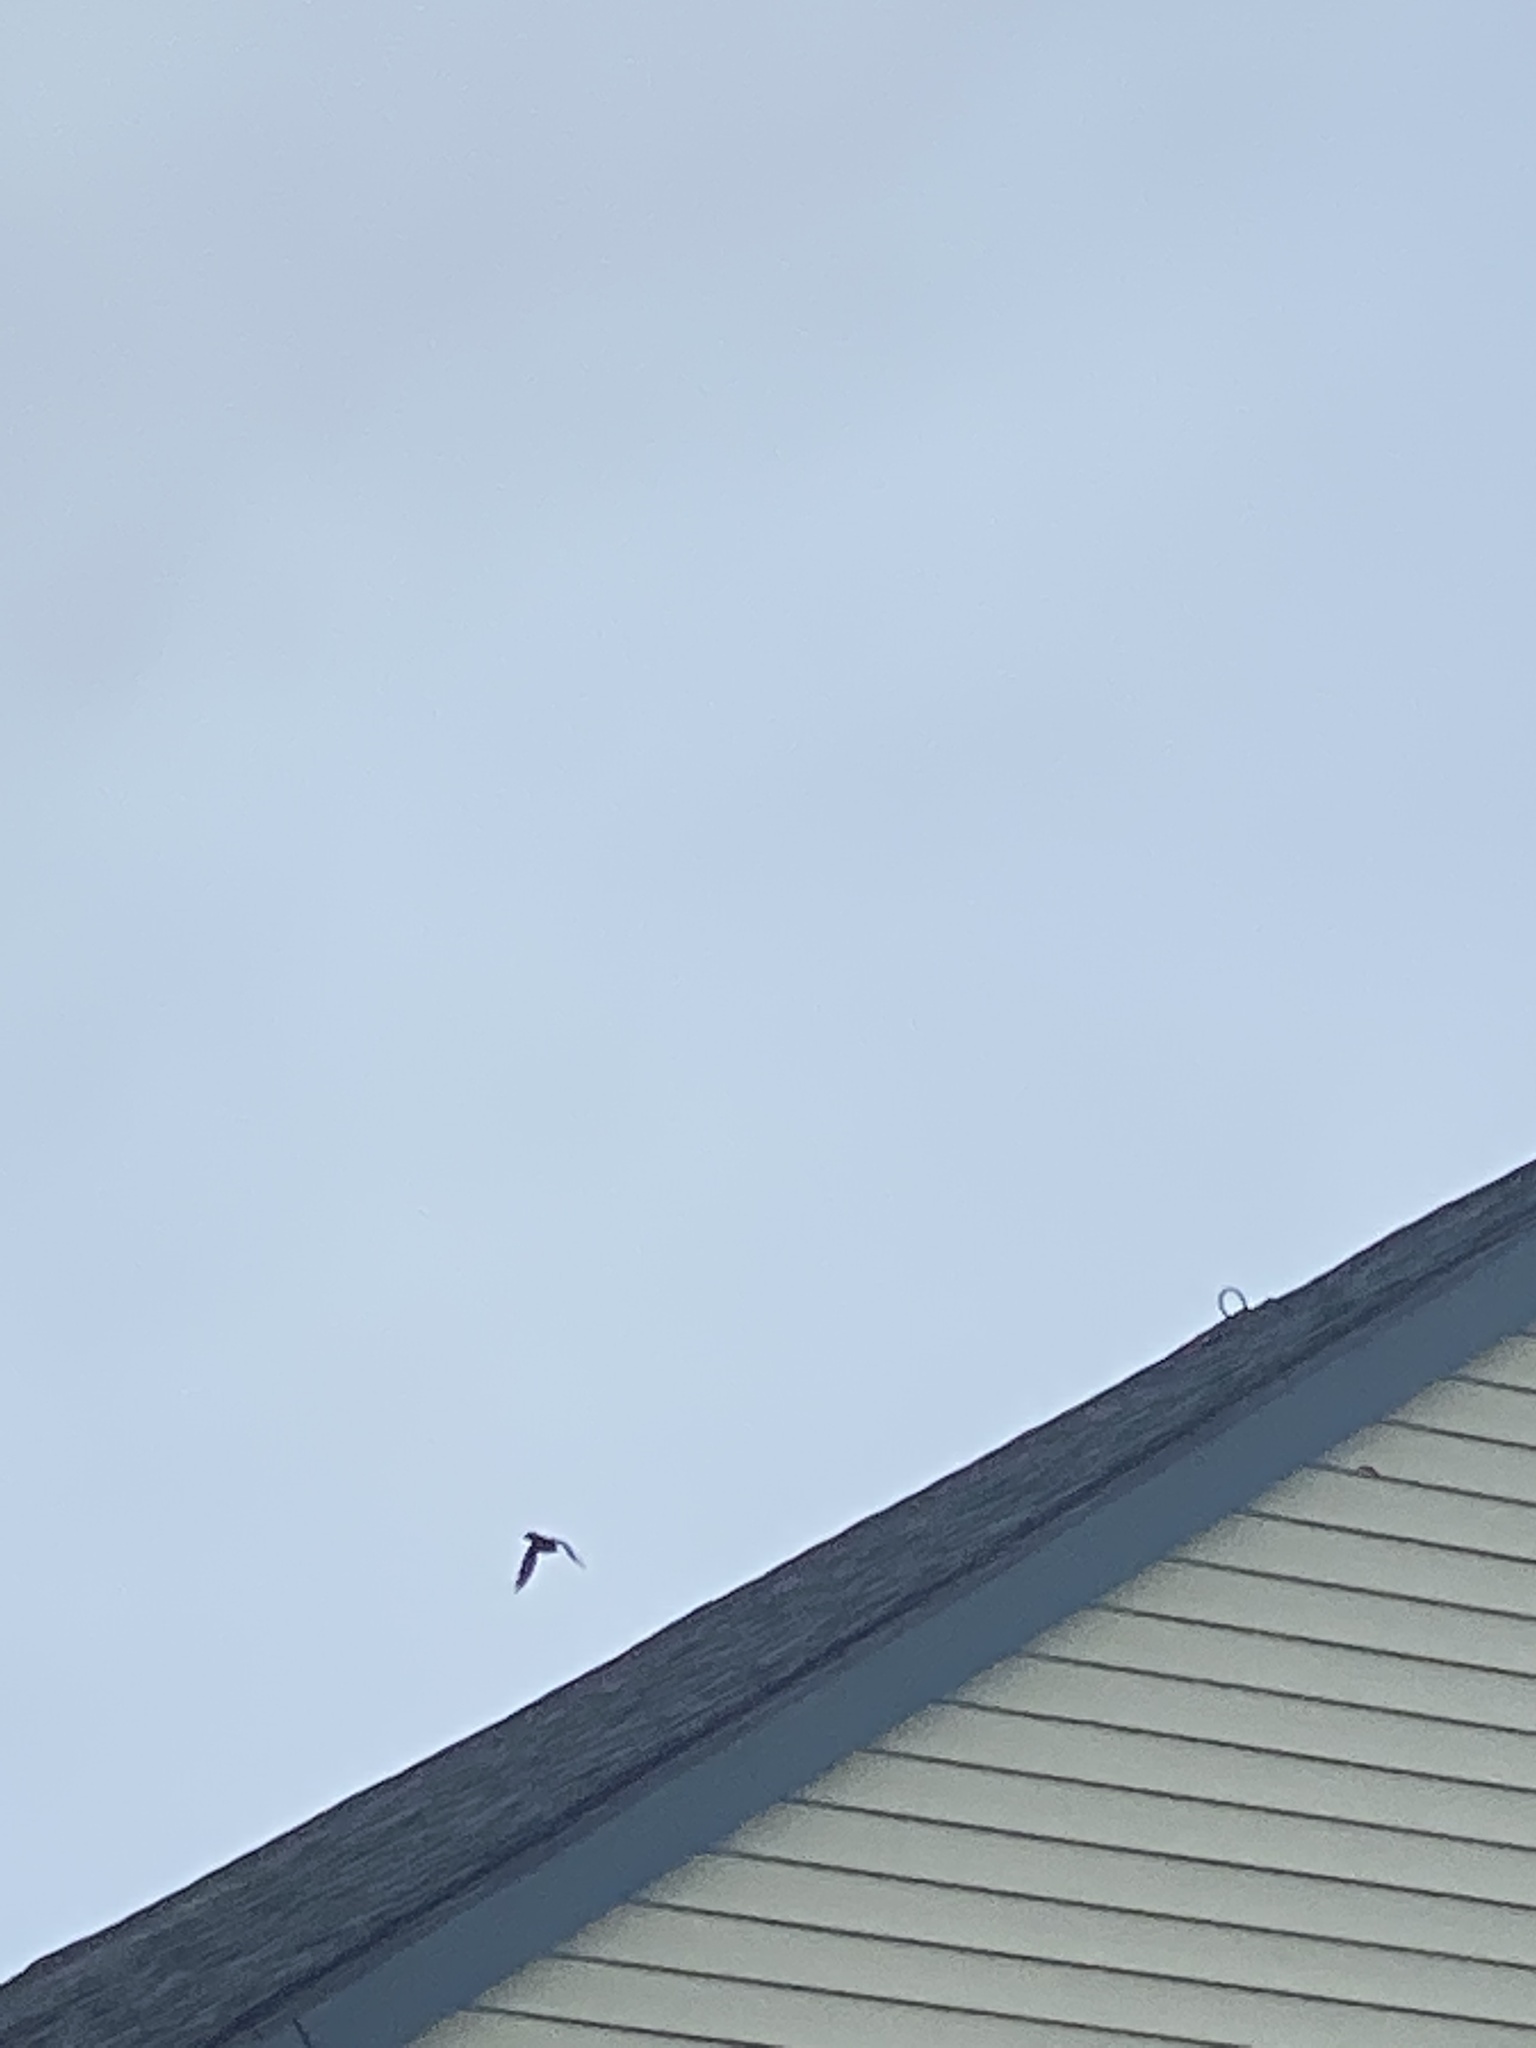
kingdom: Animalia
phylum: Chordata
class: Aves
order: Passeriformes
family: Corvidae
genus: Corvus
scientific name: Corvus brachyrhynchos
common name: American crow
